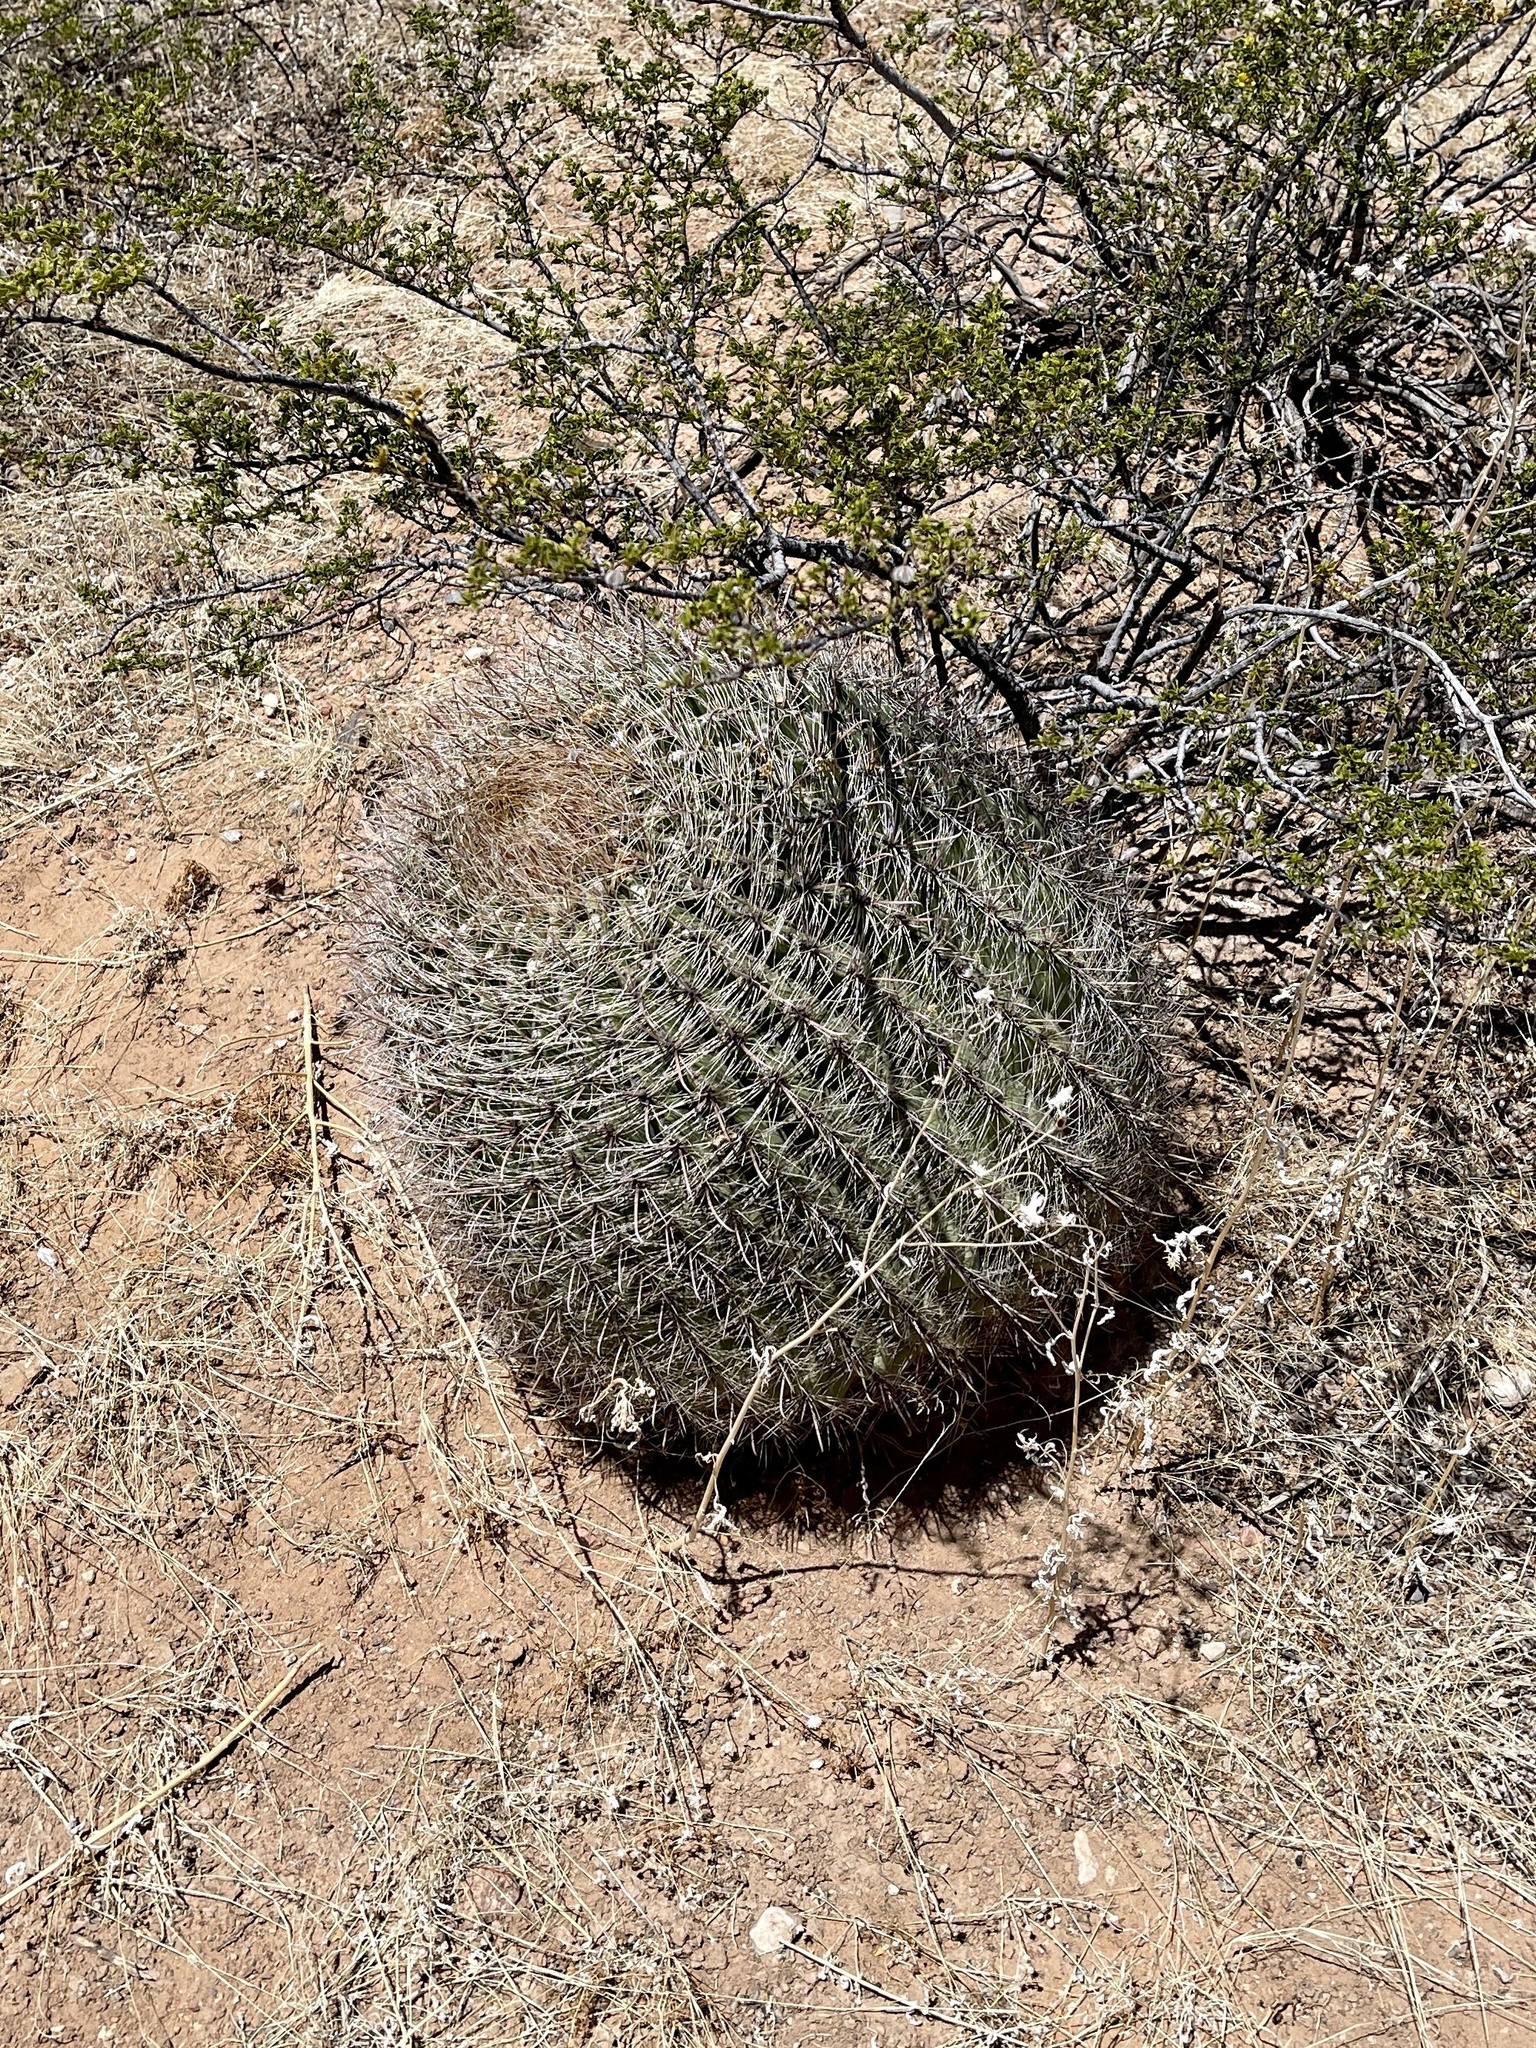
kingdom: Plantae
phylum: Tracheophyta
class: Magnoliopsida
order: Caryophyllales
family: Cactaceae
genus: Ferocactus
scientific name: Ferocactus wislizeni
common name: Candy barrel cactus
